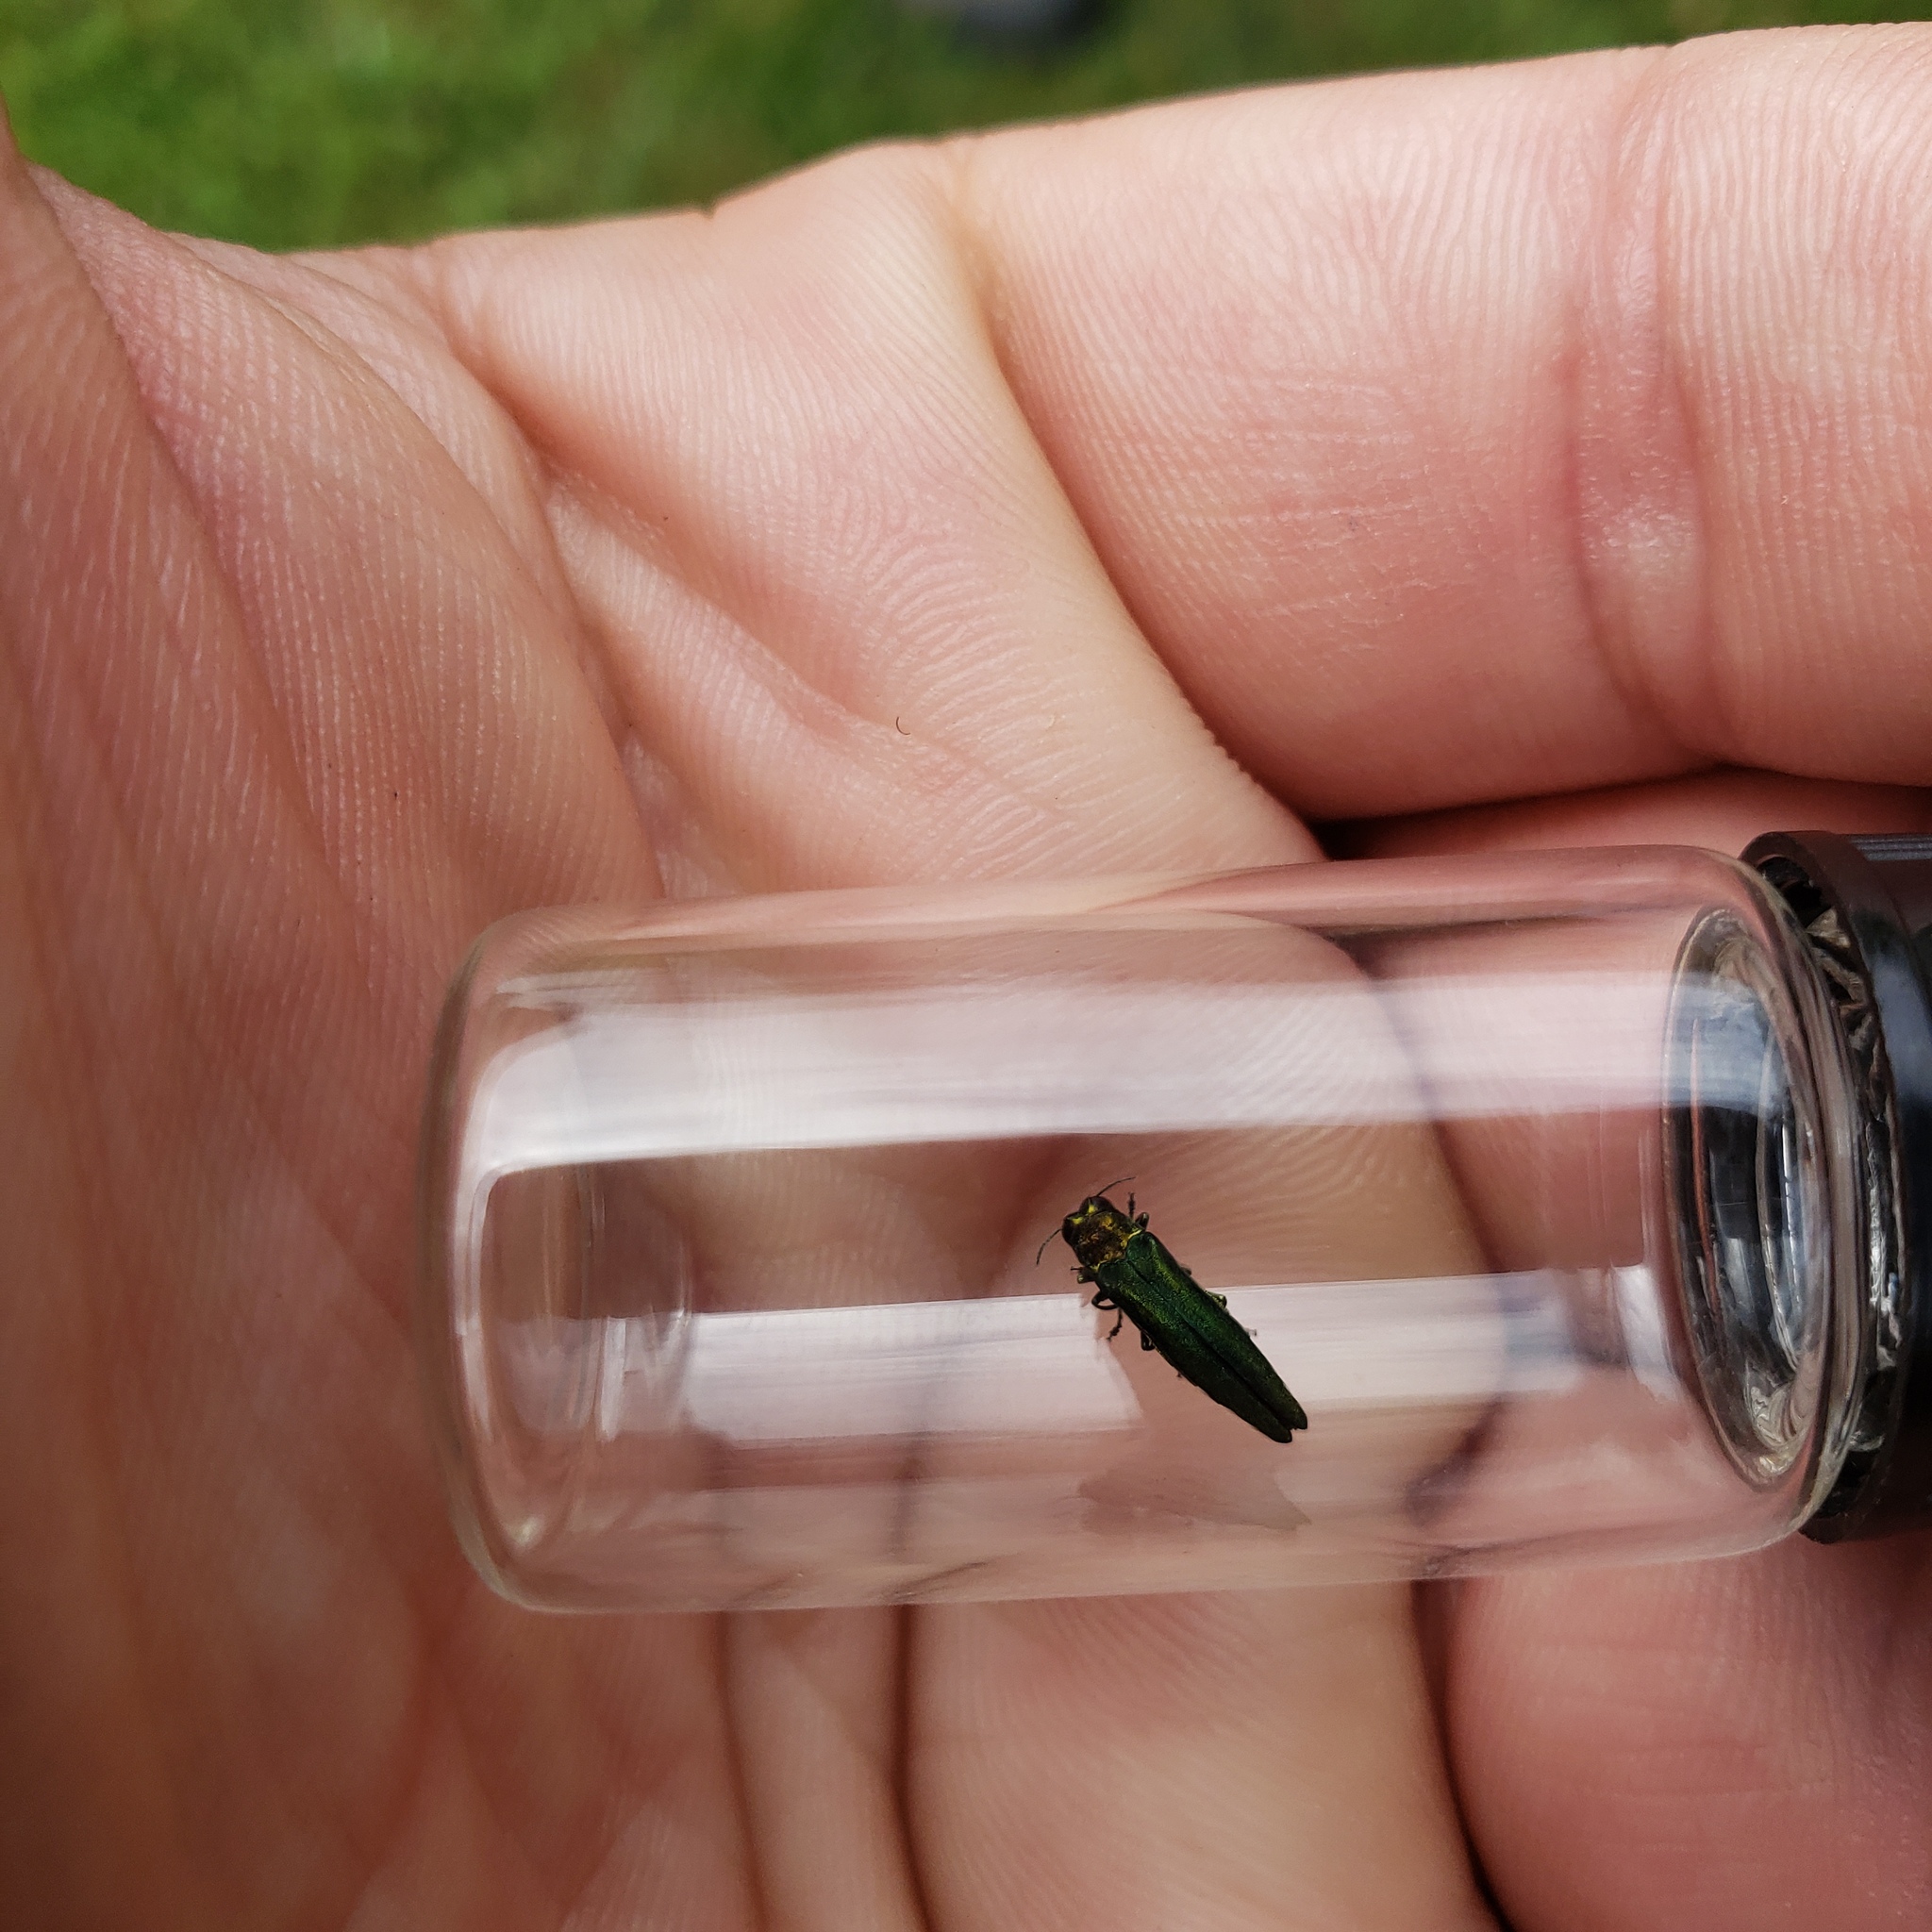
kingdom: Animalia
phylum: Arthropoda
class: Insecta
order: Coleoptera
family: Buprestidae
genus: Agrilus
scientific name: Agrilus planipennis
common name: Emerald ash borer
